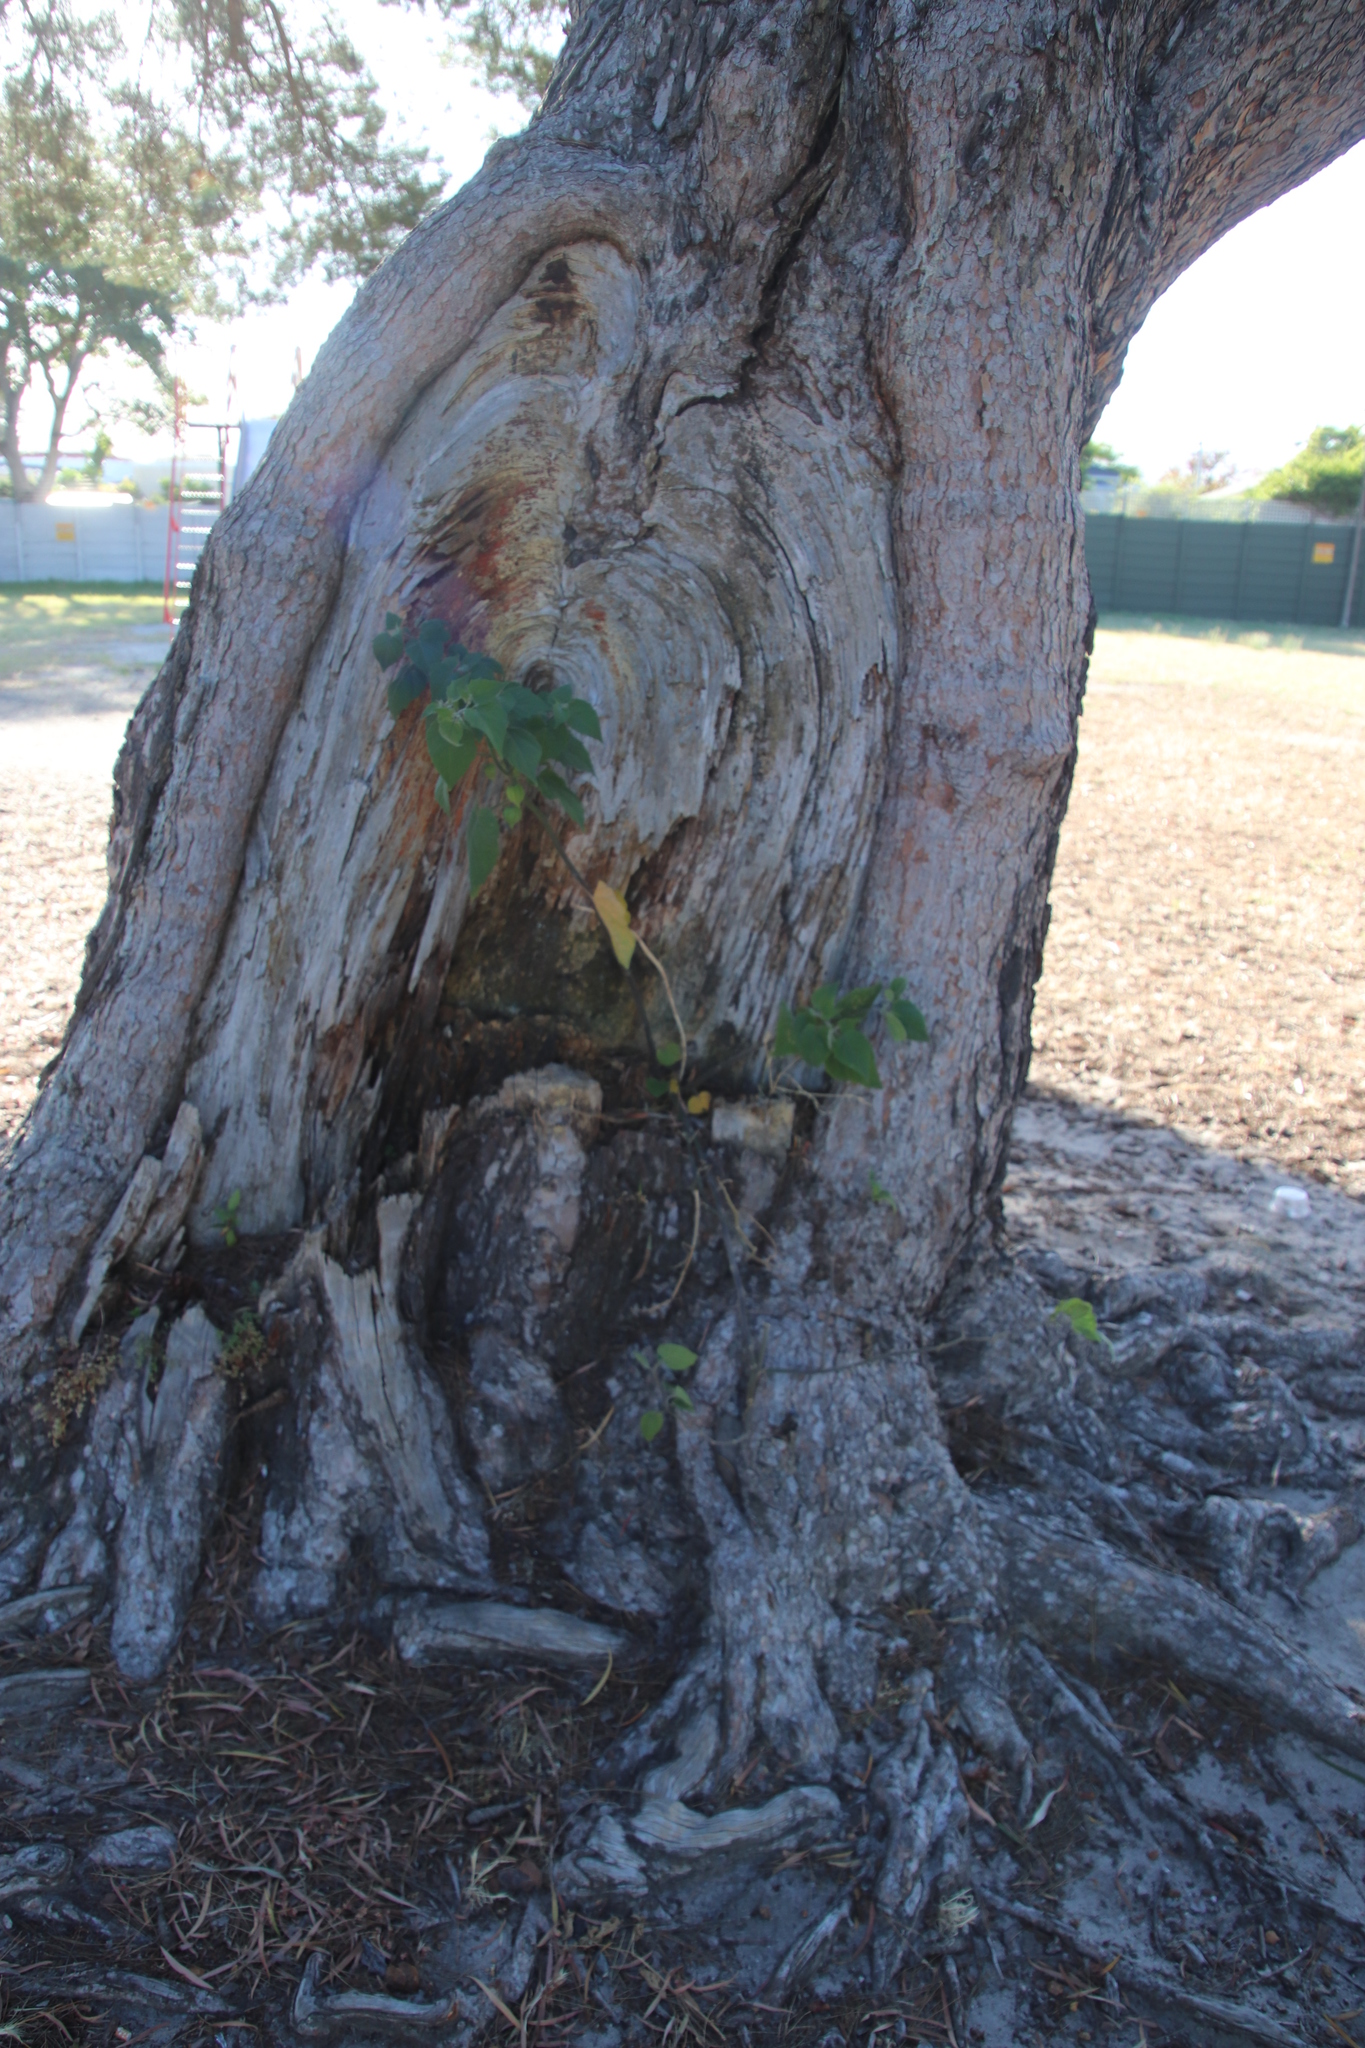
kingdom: Plantae
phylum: Tracheophyta
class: Magnoliopsida
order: Solanales
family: Solanaceae
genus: Physalis
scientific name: Physalis peruviana
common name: Cape-gooseberry
